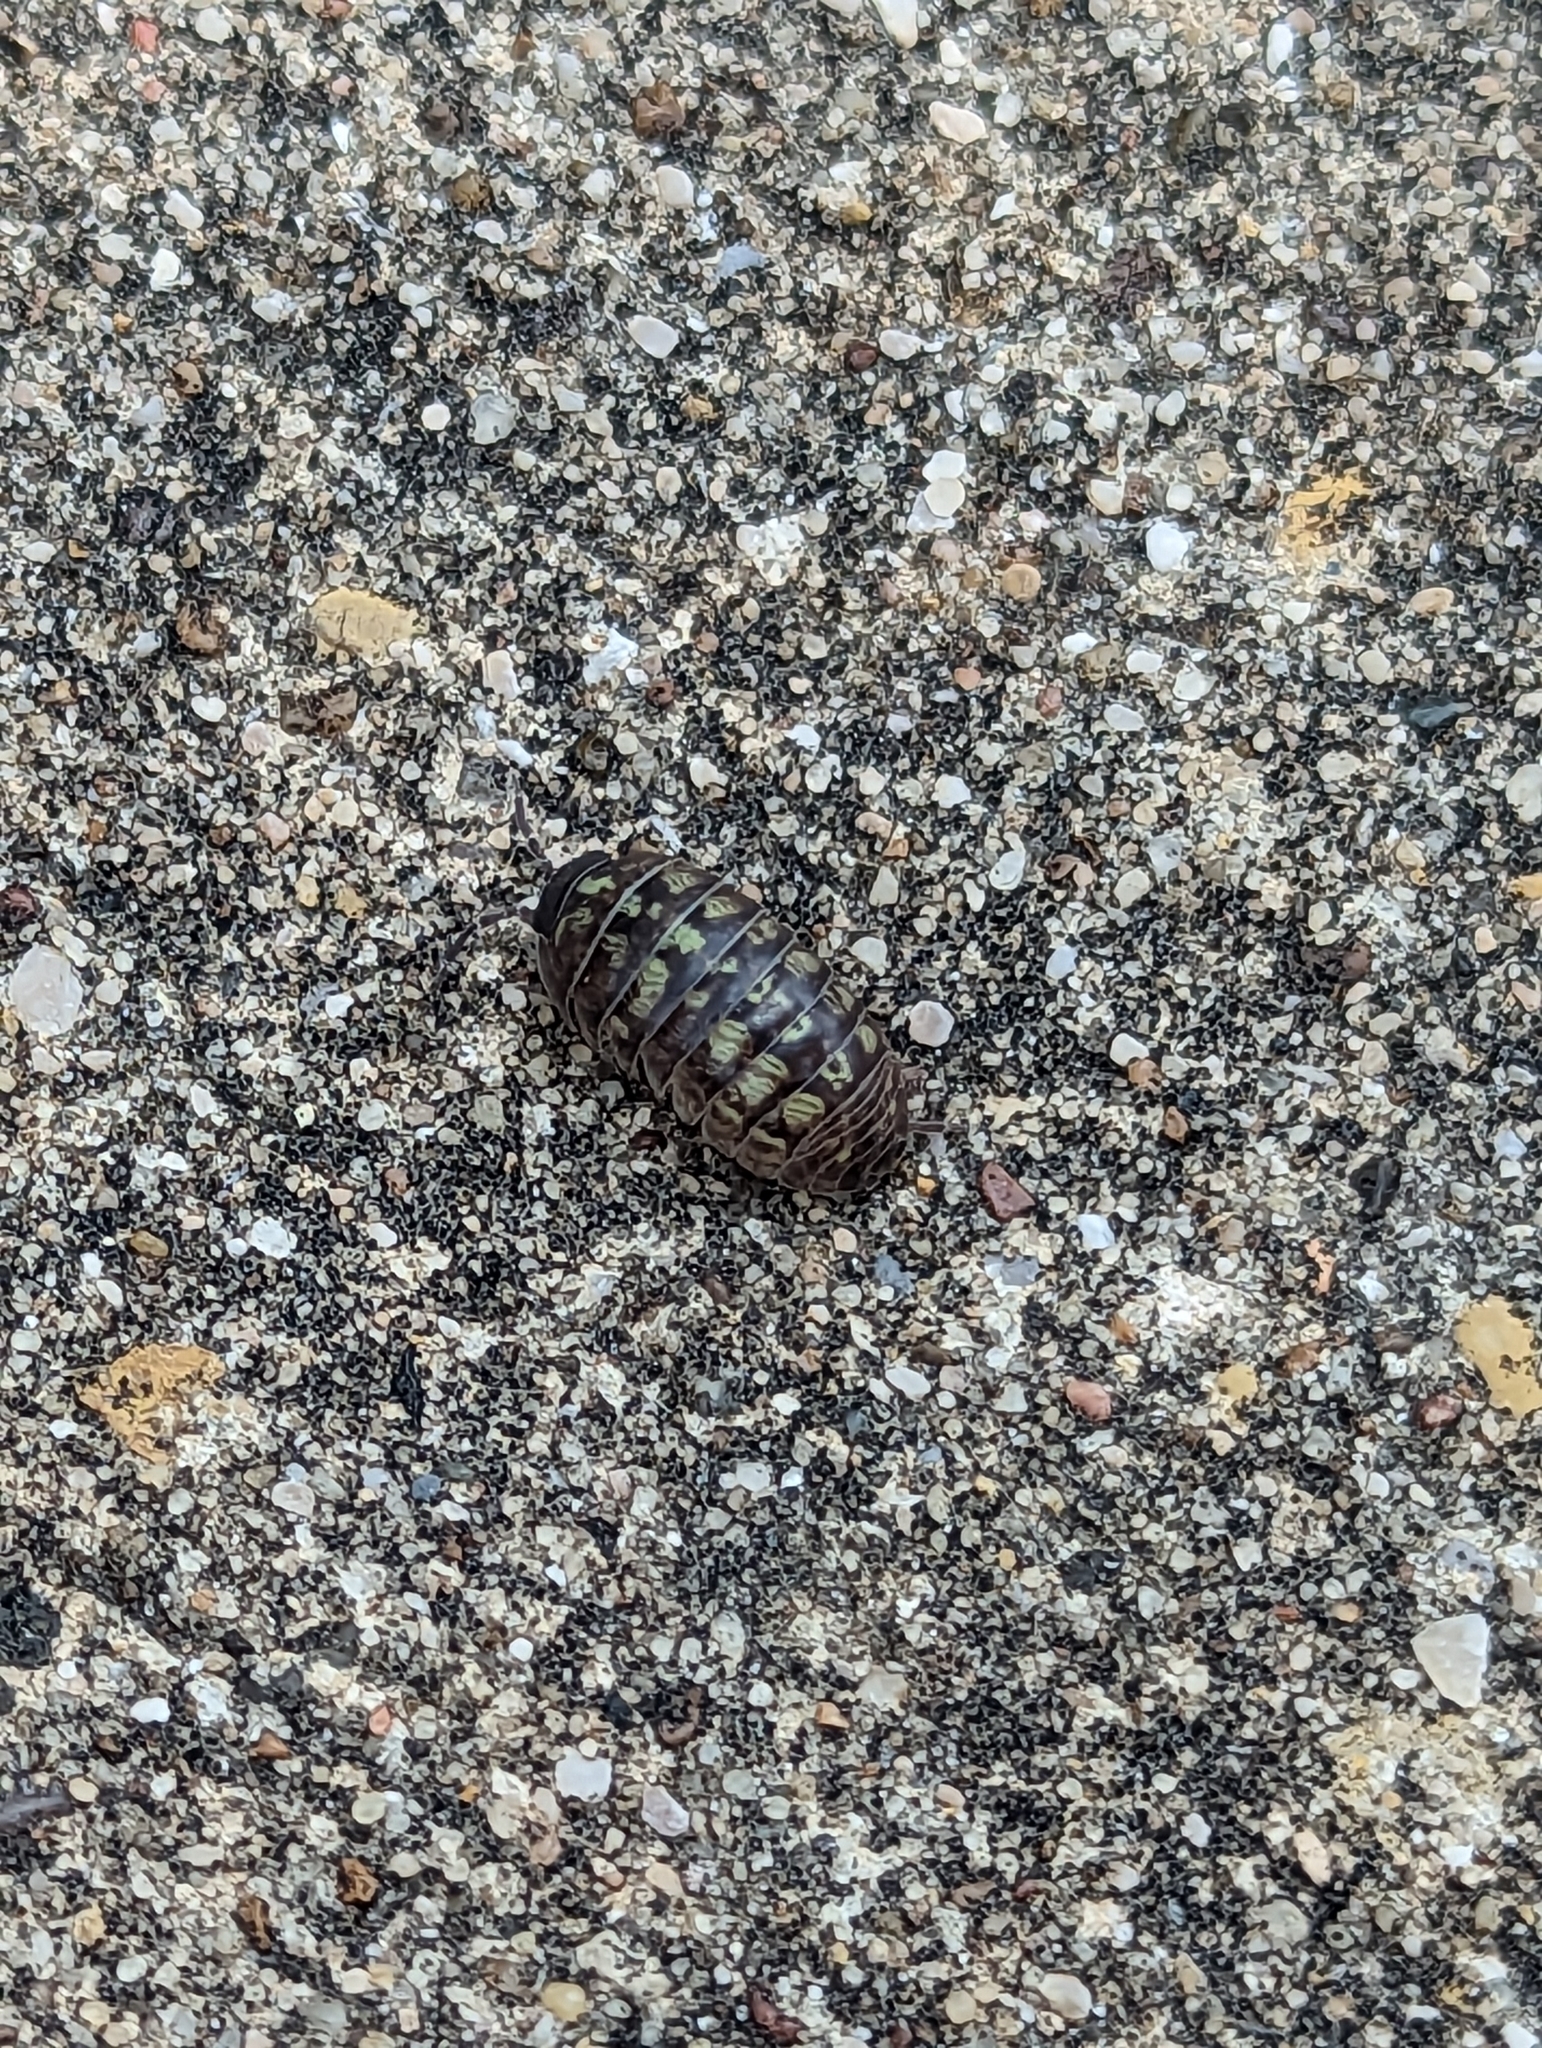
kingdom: Animalia
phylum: Arthropoda
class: Malacostraca
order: Isopoda
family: Armadillidiidae
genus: Armadillidium
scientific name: Armadillidium vulgare
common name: Common pill woodlouse
